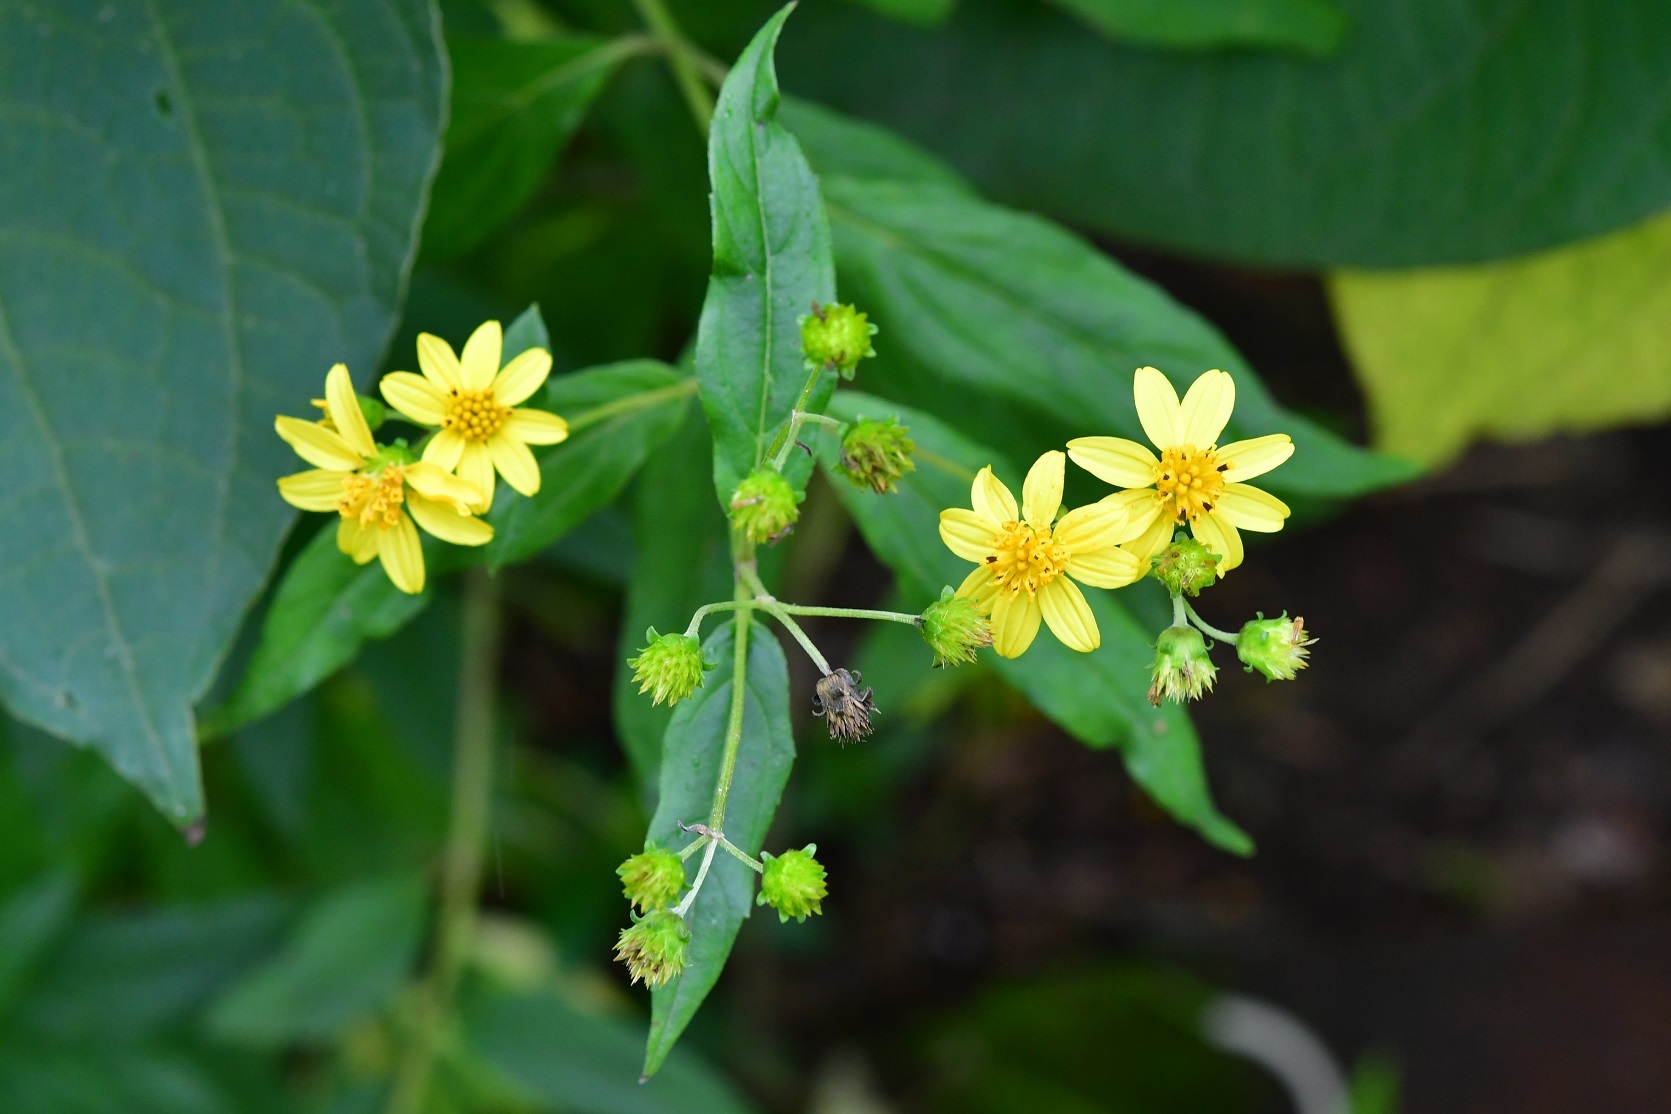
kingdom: Plantae
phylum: Tracheophyta
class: Magnoliopsida
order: Asterales
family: Asteraceae
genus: Perymenium
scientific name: Perymenium ghiesbreghtii
